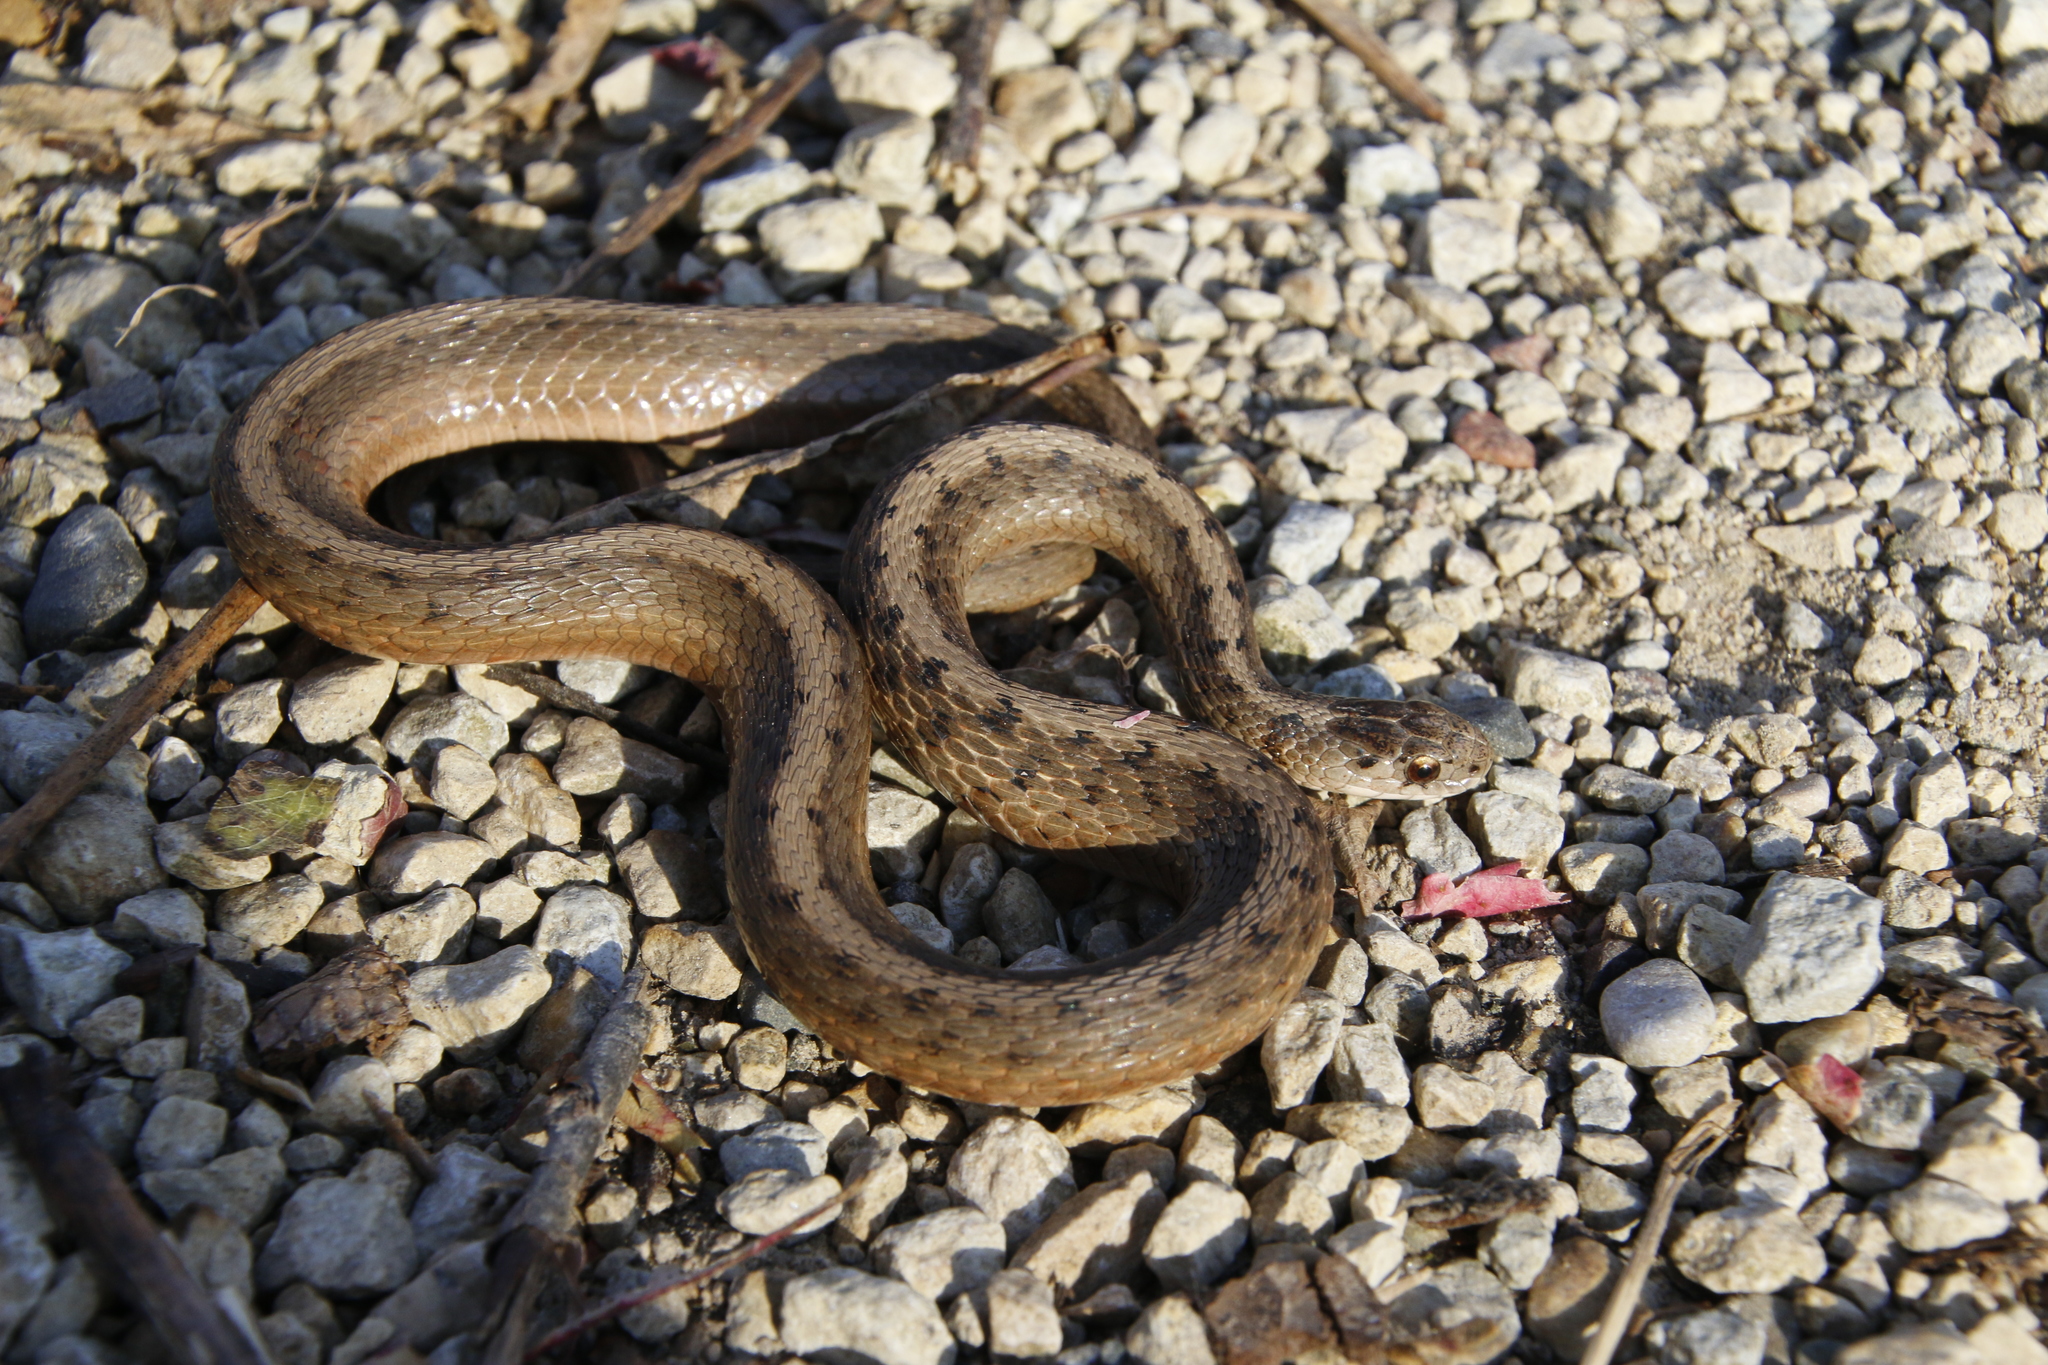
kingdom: Animalia
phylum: Chordata
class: Squamata
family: Colubridae
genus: Storeria
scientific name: Storeria dekayi
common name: (dekay’s) brown snake
